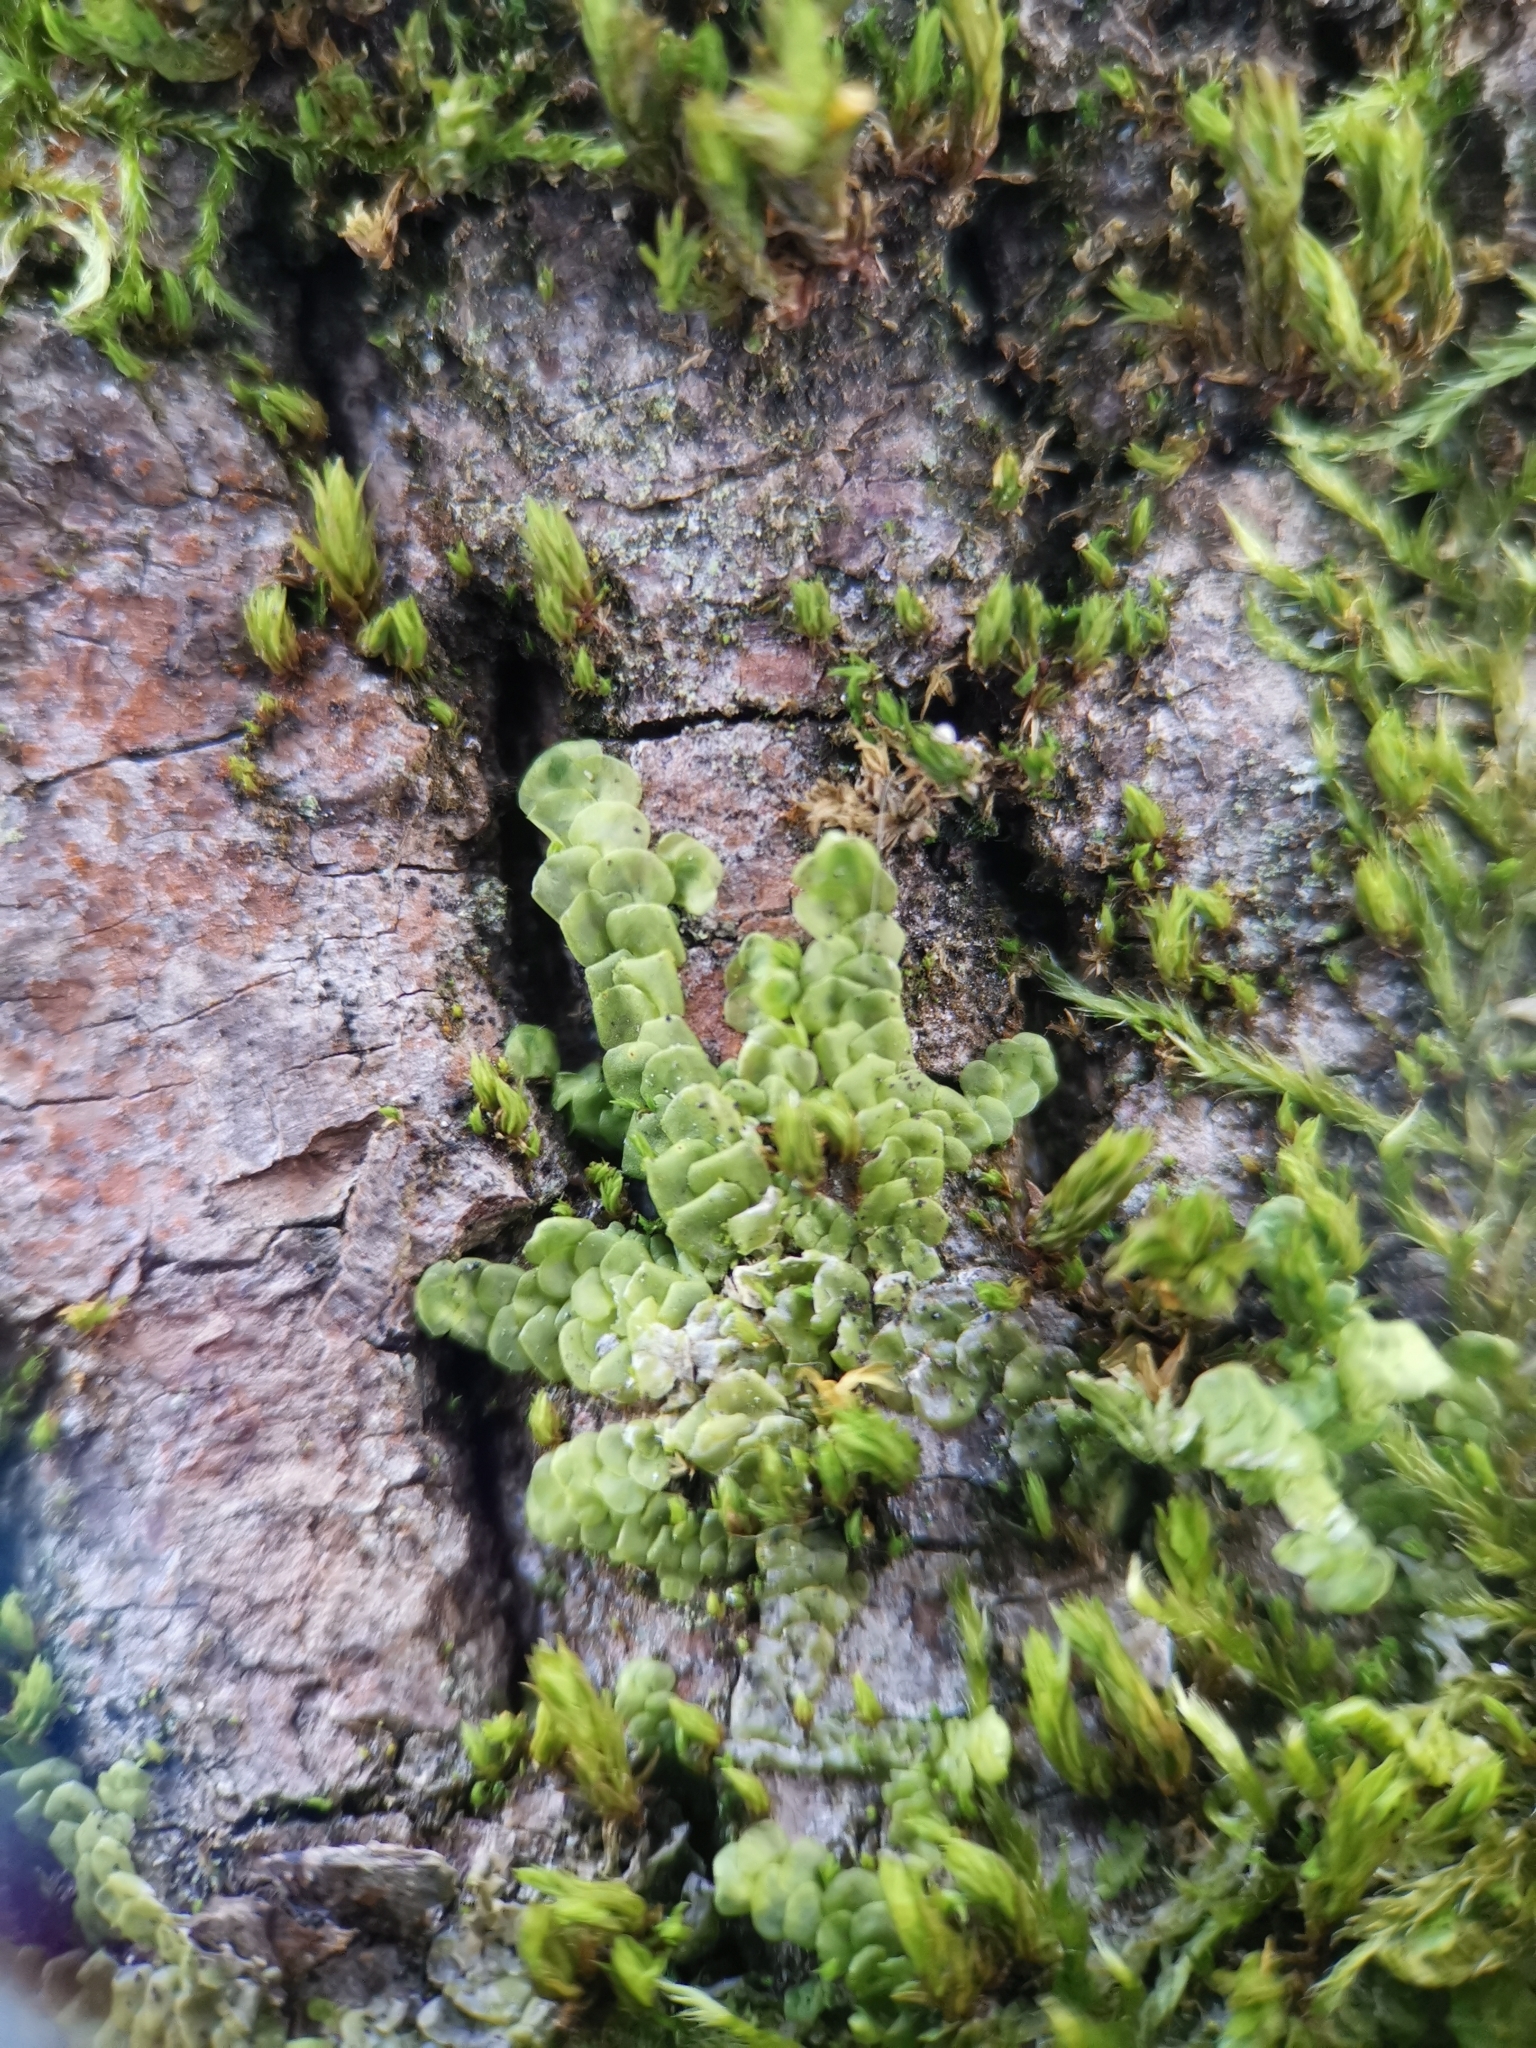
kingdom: Plantae
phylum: Marchantiophyta
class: Jungermanniopsida
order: Porellales
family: Radulaceae
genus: Radula
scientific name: Radula complanata
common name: Flat-leaved scalewort
